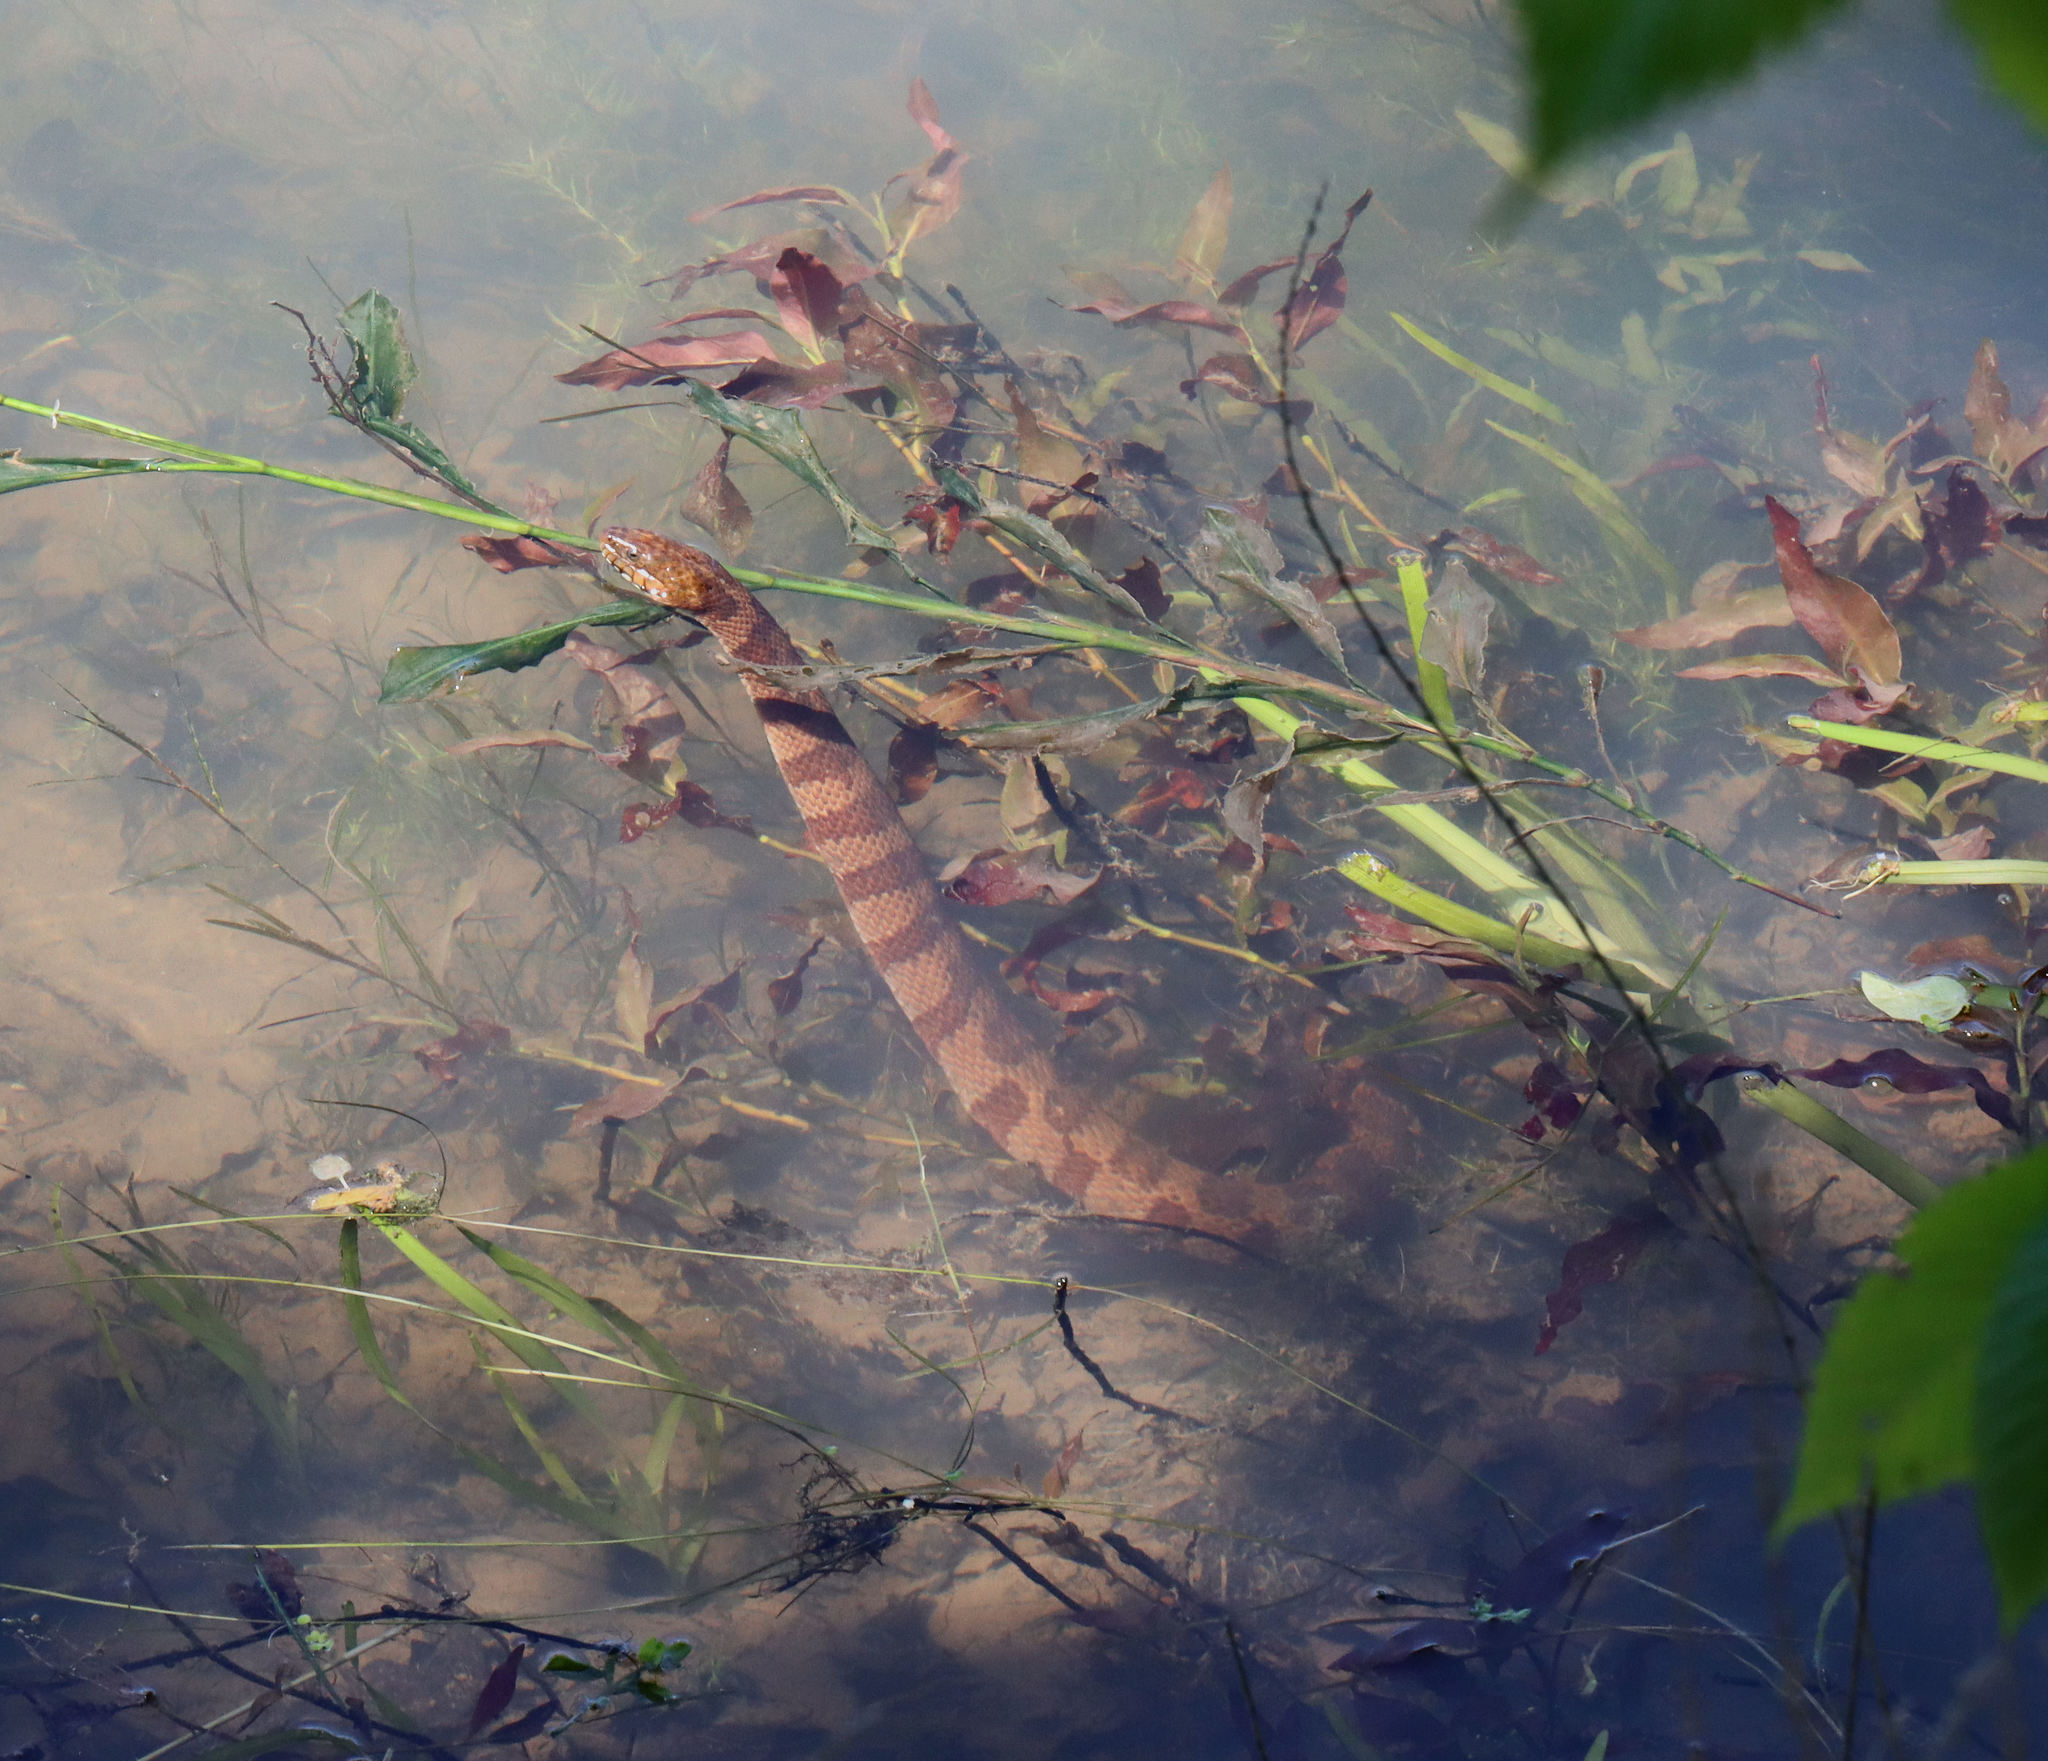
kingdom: Animalia
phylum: Chordata
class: Squamata
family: Colubridae
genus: Nerodia
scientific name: Nerodia sipedon
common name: Northern water snake
